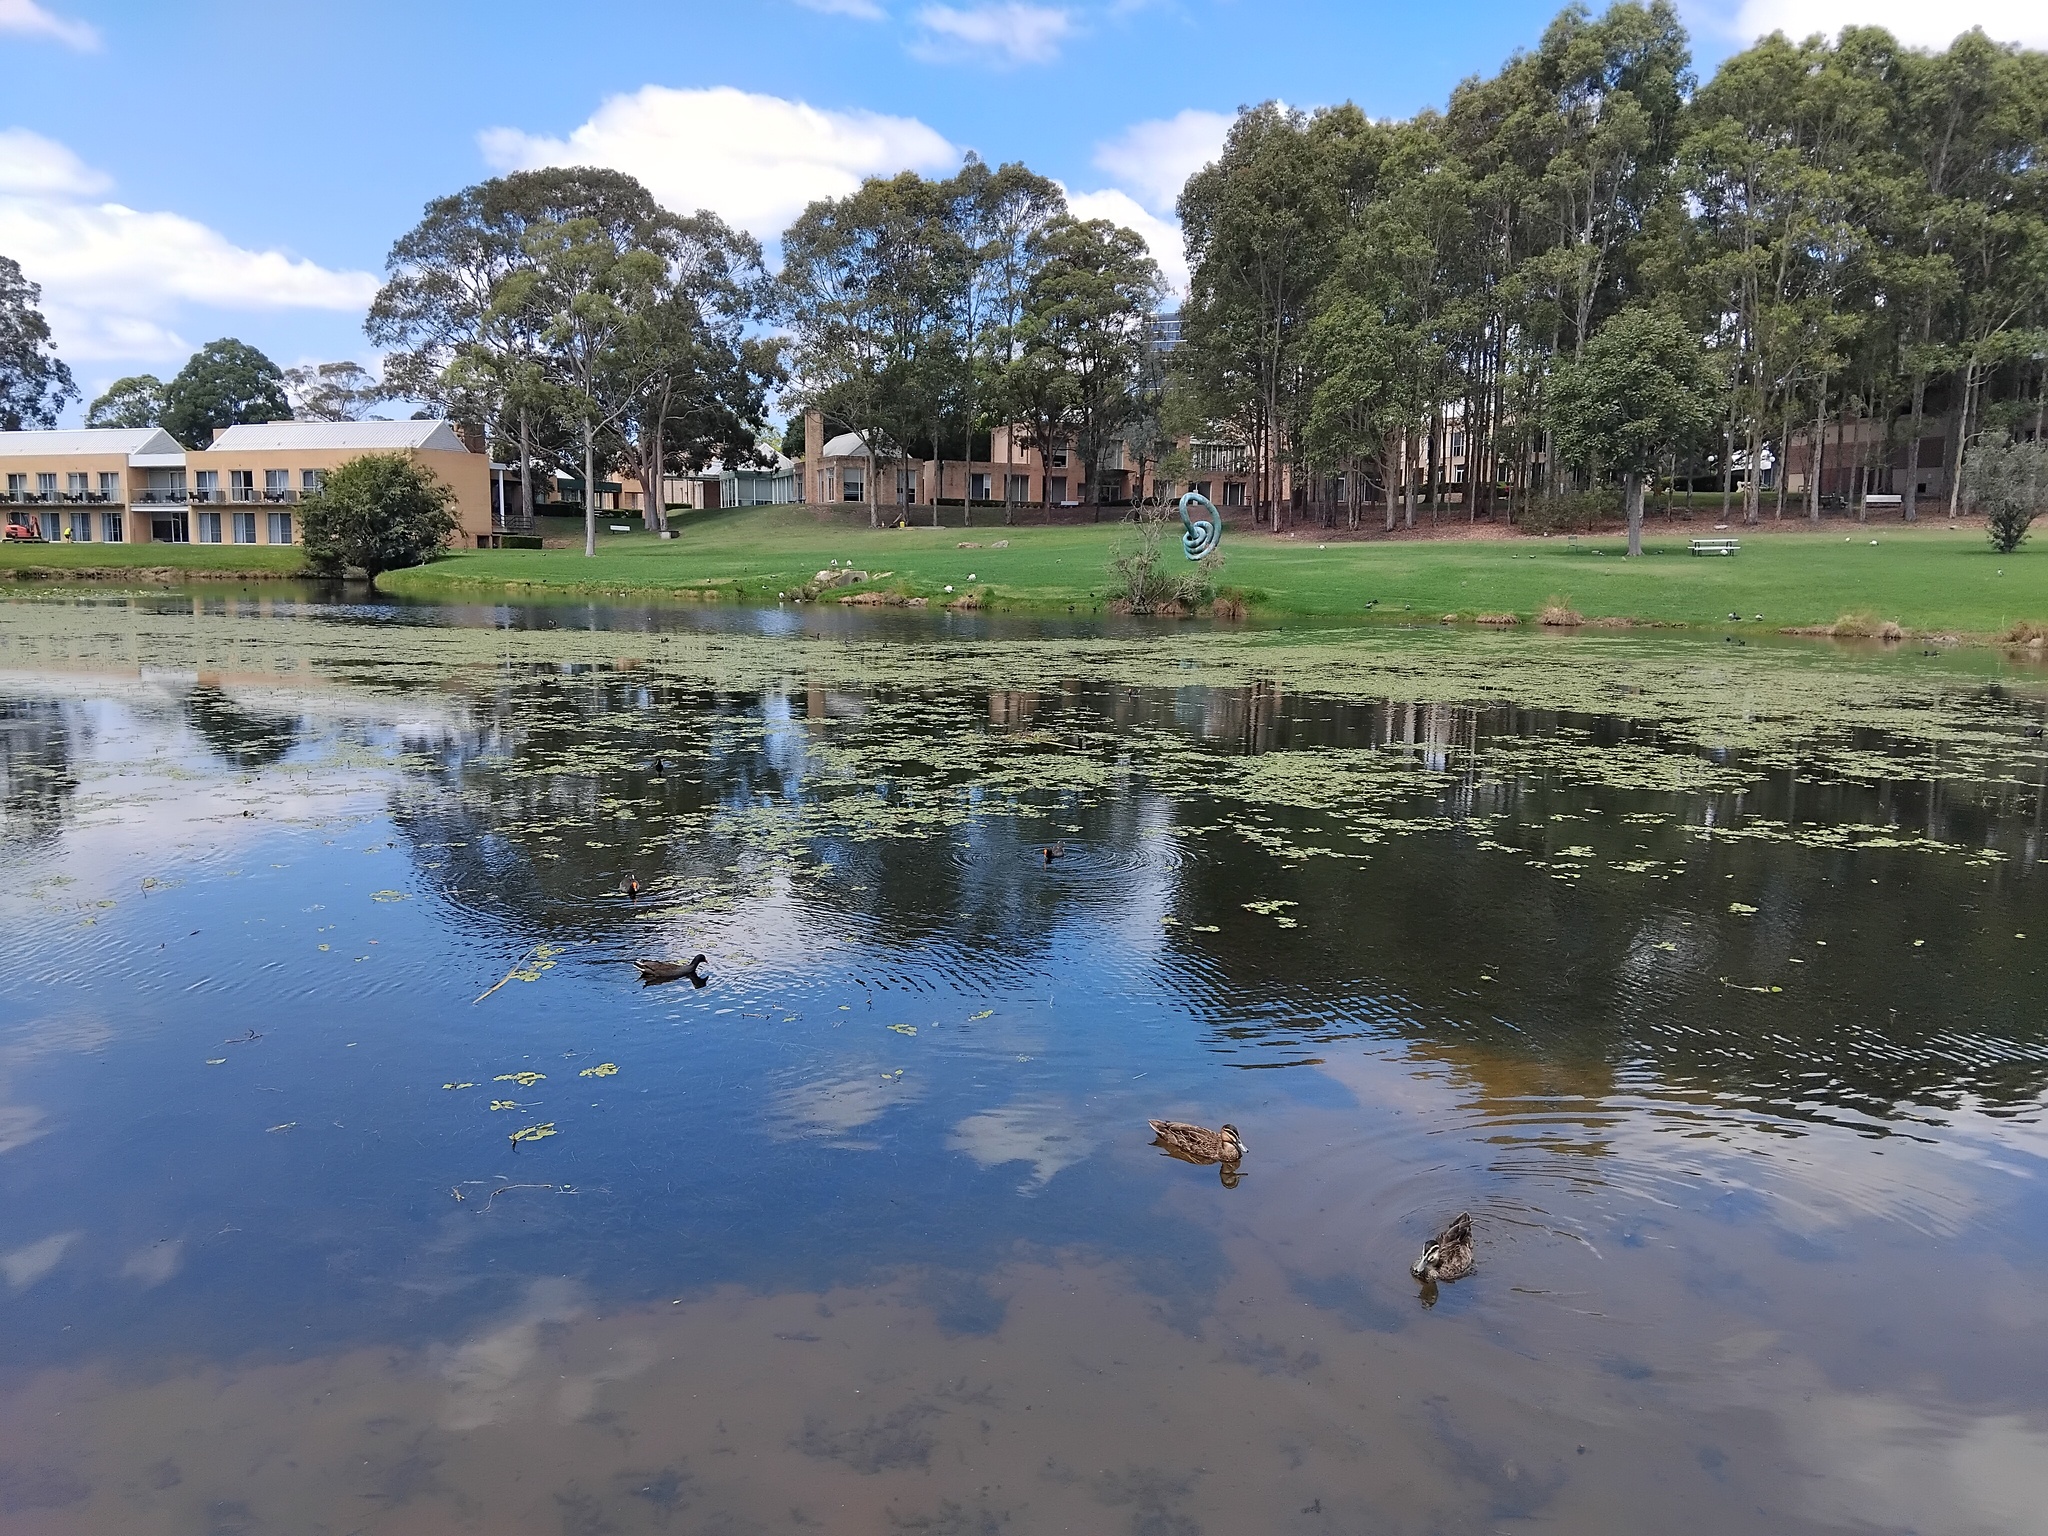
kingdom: Animalia
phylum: Chordata
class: Aves
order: Podicipediformes
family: Podicipedidae
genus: Tachybaptus
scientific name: Tachybaptus novaehollandiae
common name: Australasian grebe
